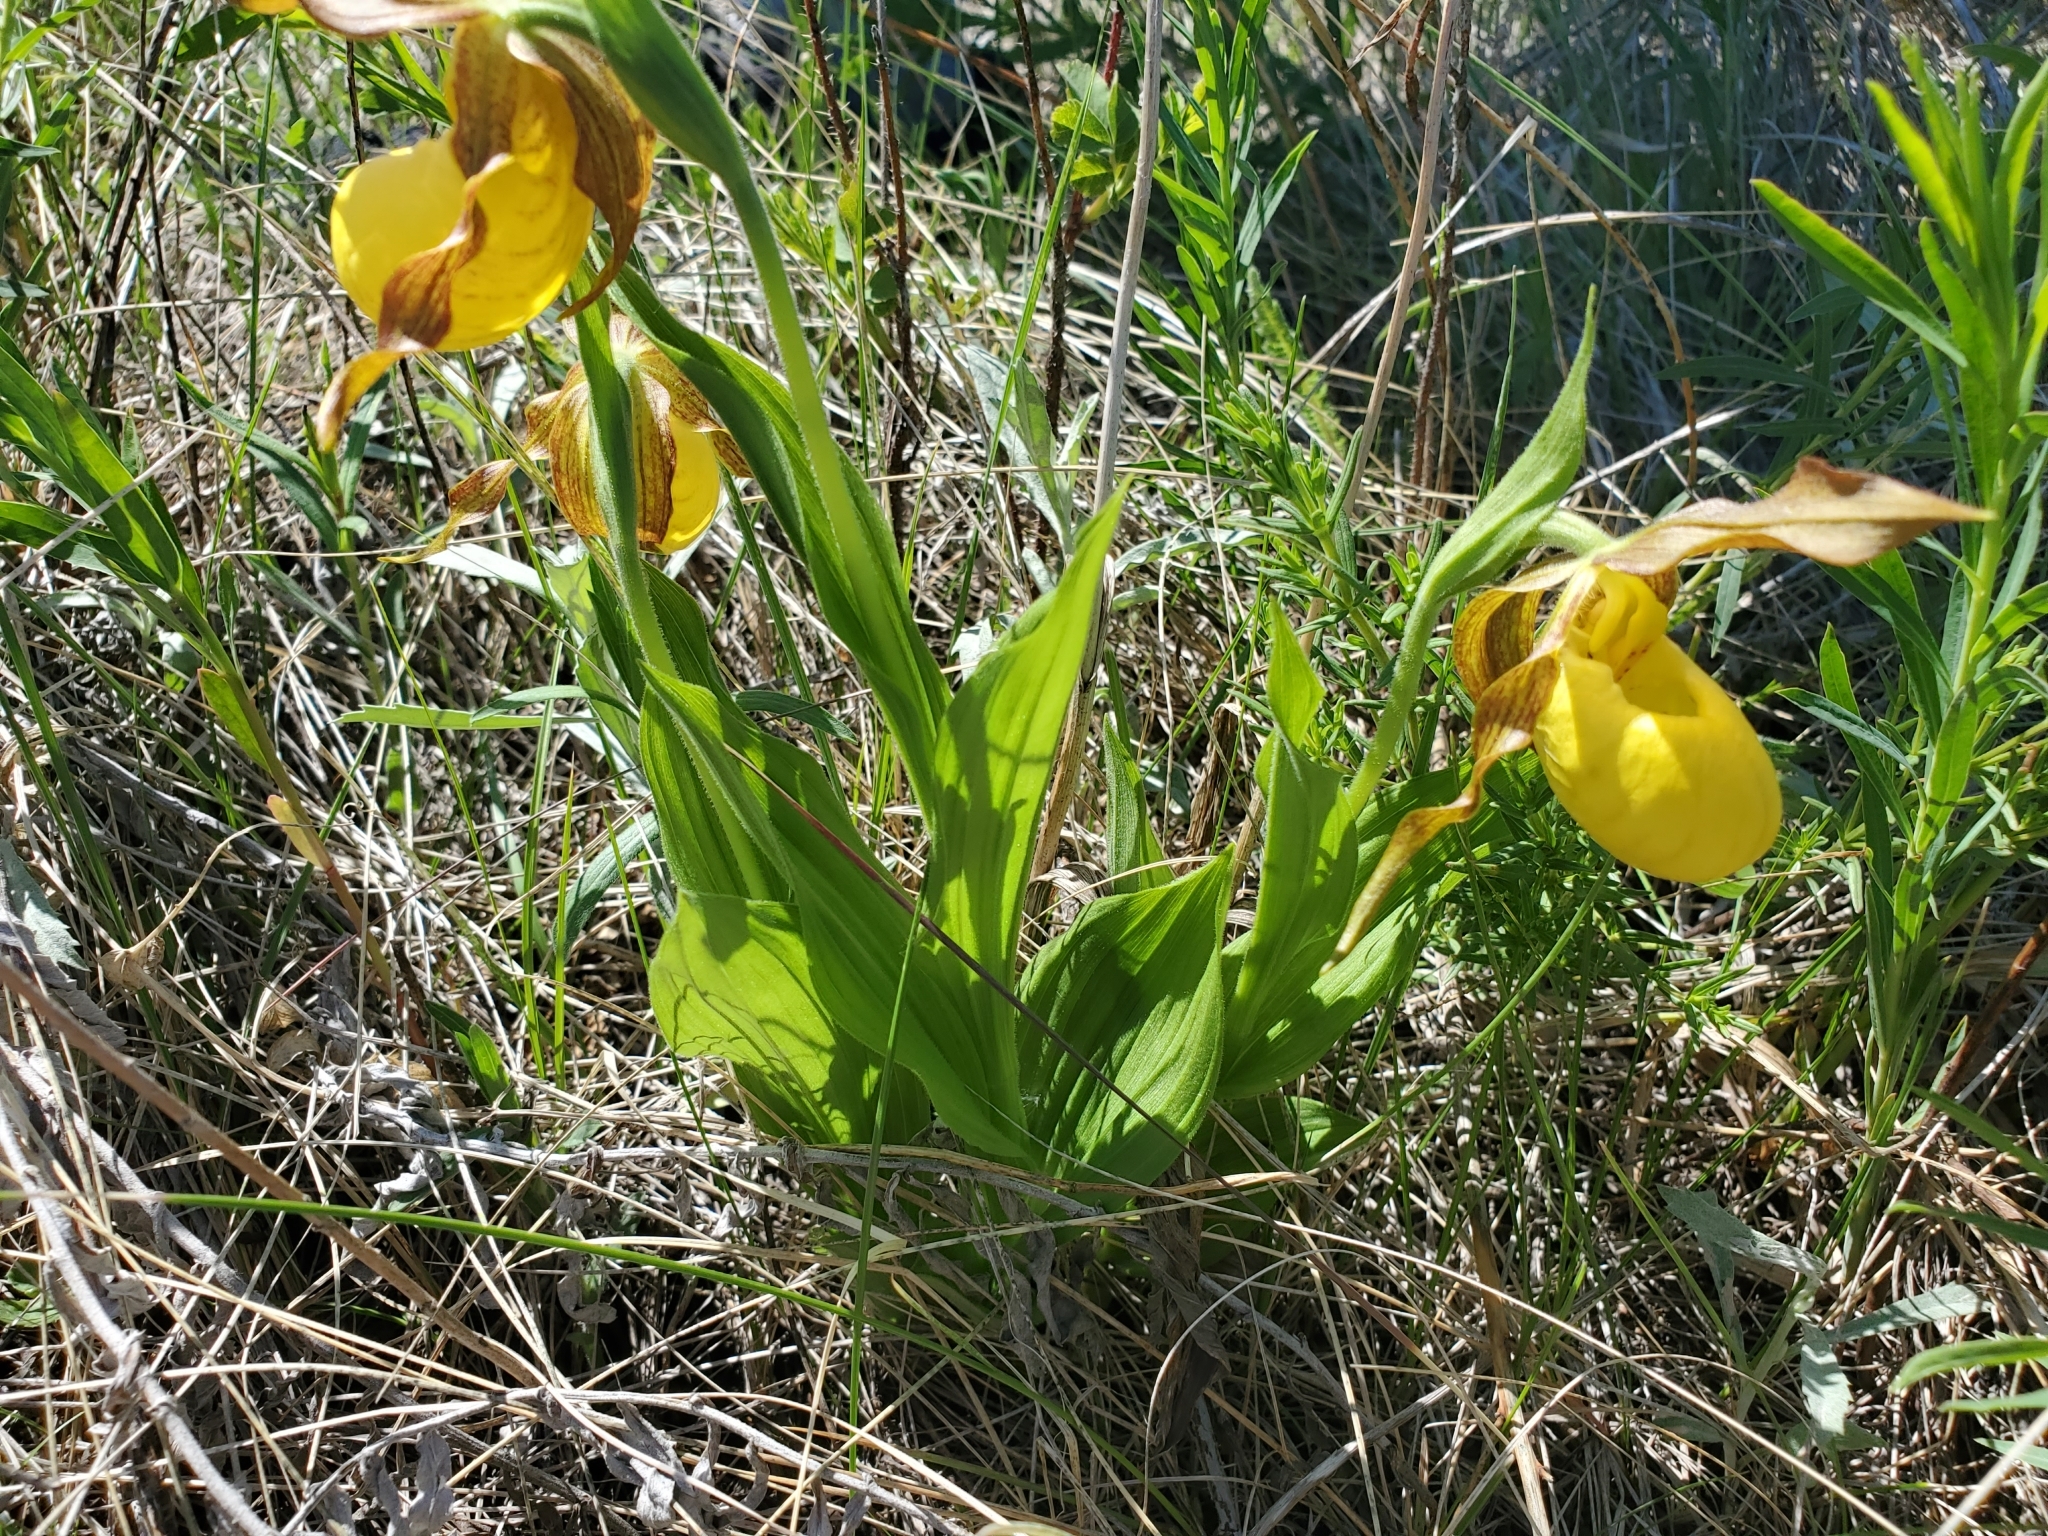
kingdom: Plantae
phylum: Tracheophyta
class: Liliopsida
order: Asparagales
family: Orchidaceae
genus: Cypripedium
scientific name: Cypripedium parviflorum
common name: American yellow lady's-slipper
